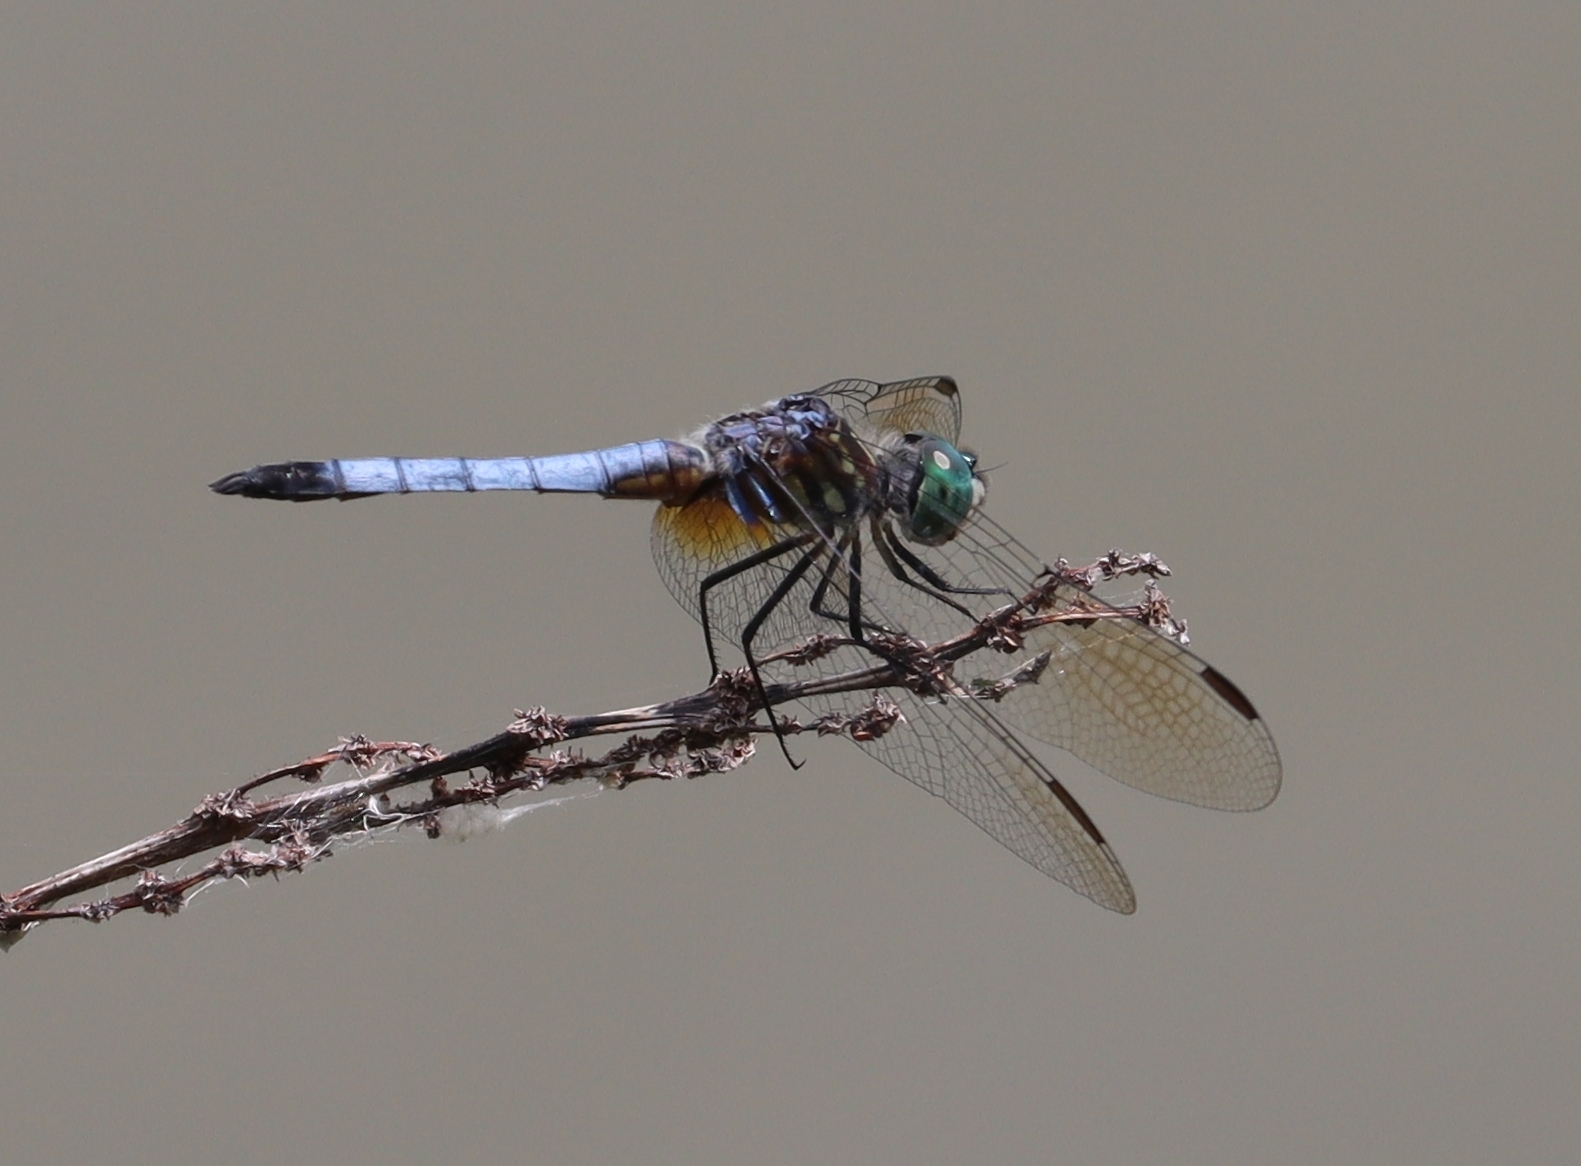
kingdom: Animalia
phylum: Arthropoda
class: Insecta
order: Odonata
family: Libellulidae
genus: Pachydiplax
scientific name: Pachydiplax longipennis
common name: Blue dasher
